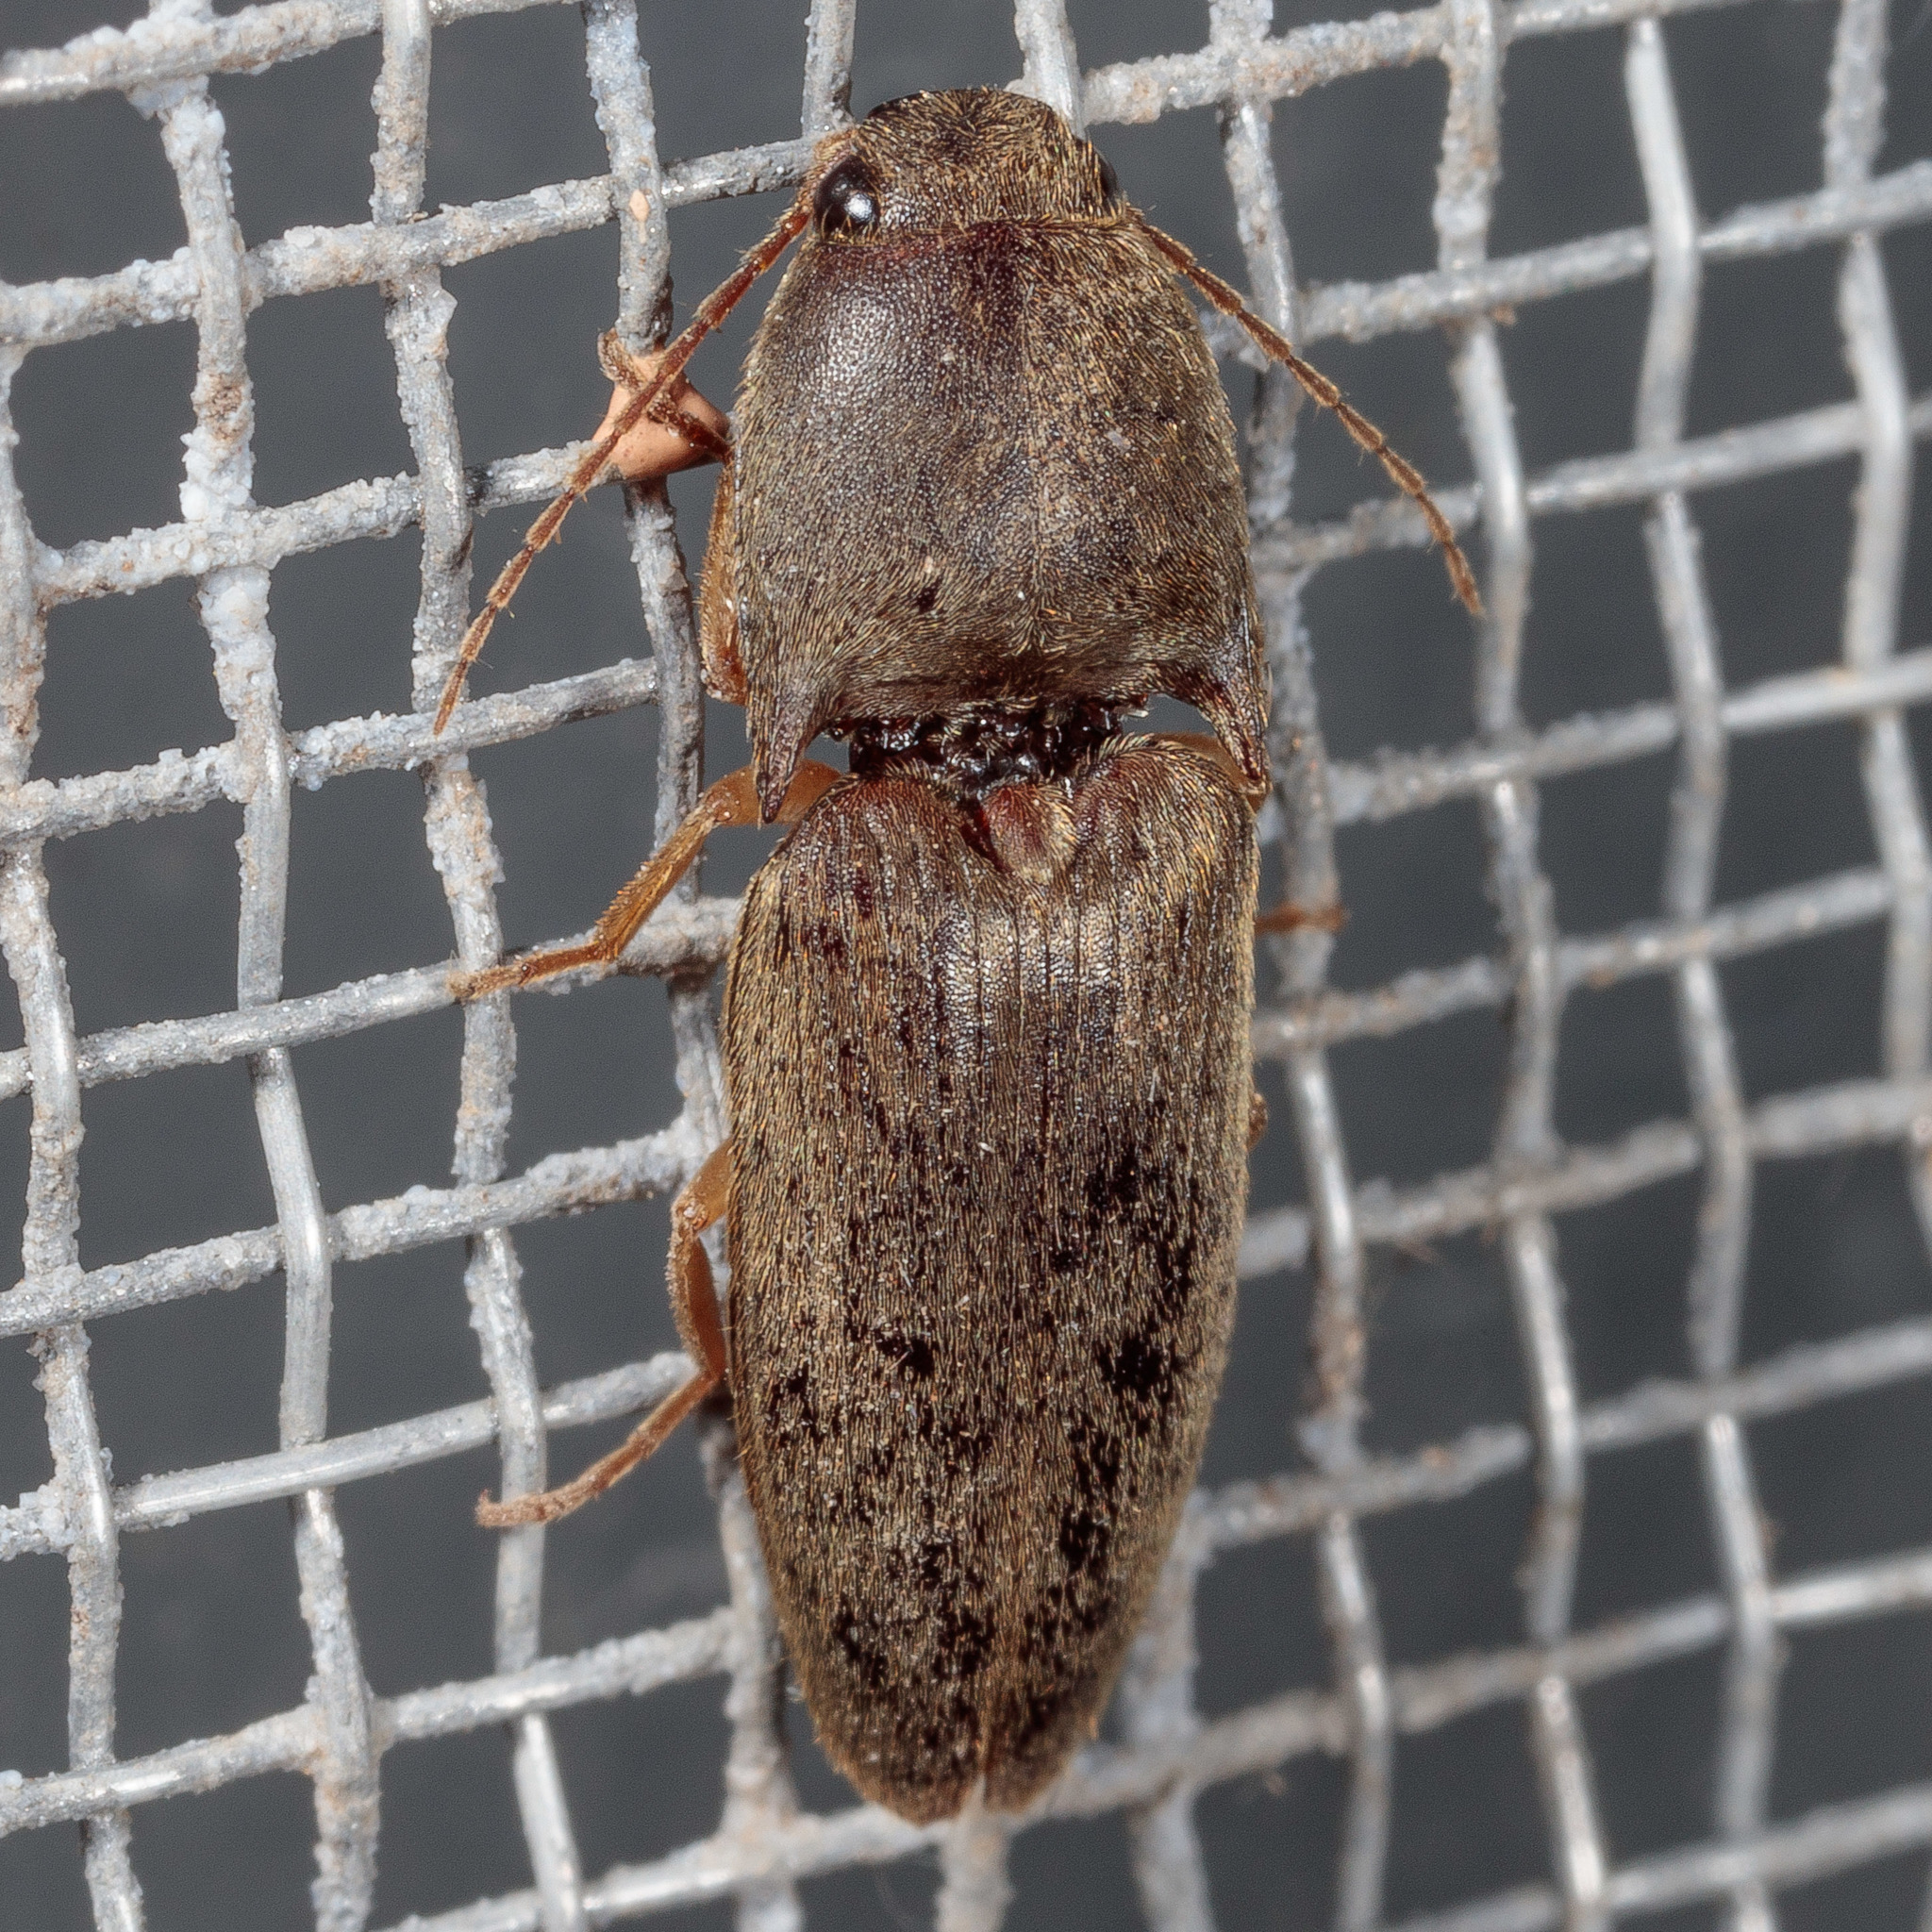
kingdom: Animalia
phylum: Arthropoda
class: Insecta
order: Coleoptera
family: Elateridae
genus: Conoderus
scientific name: Conoderus exsul
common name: Click beetle
